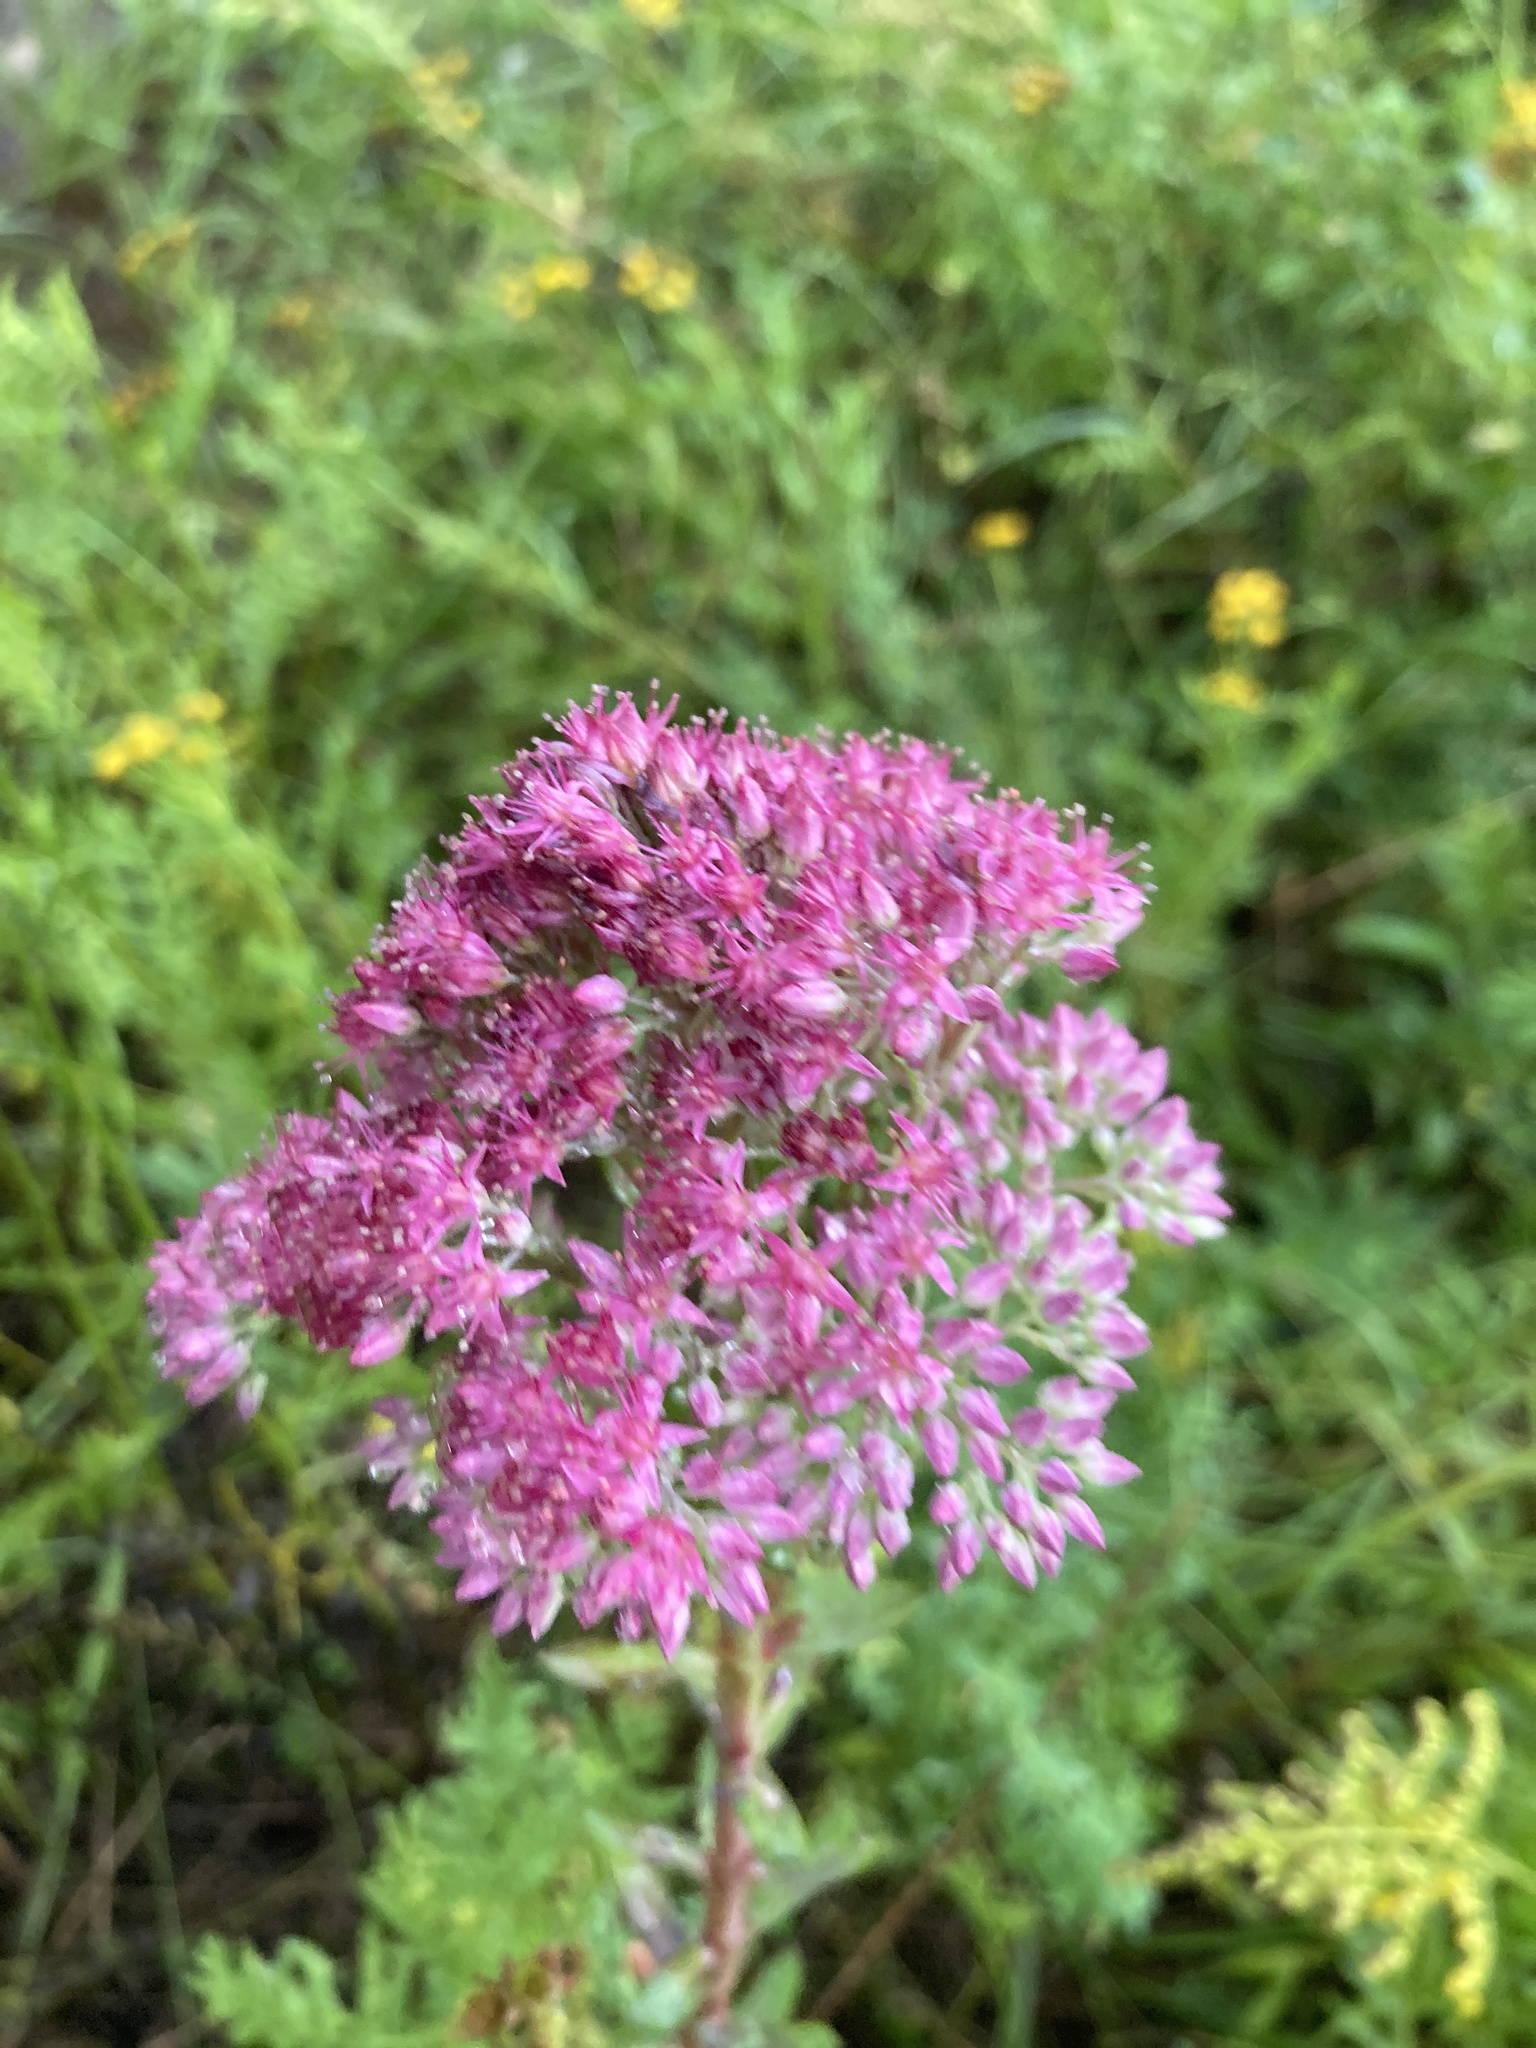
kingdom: Plantae
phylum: Tracheophyta
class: Magnoliopsida
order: Saxifragales
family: Crassulaceae
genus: Hylotelephium
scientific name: Hylotelephium telephium
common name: Live-forever
